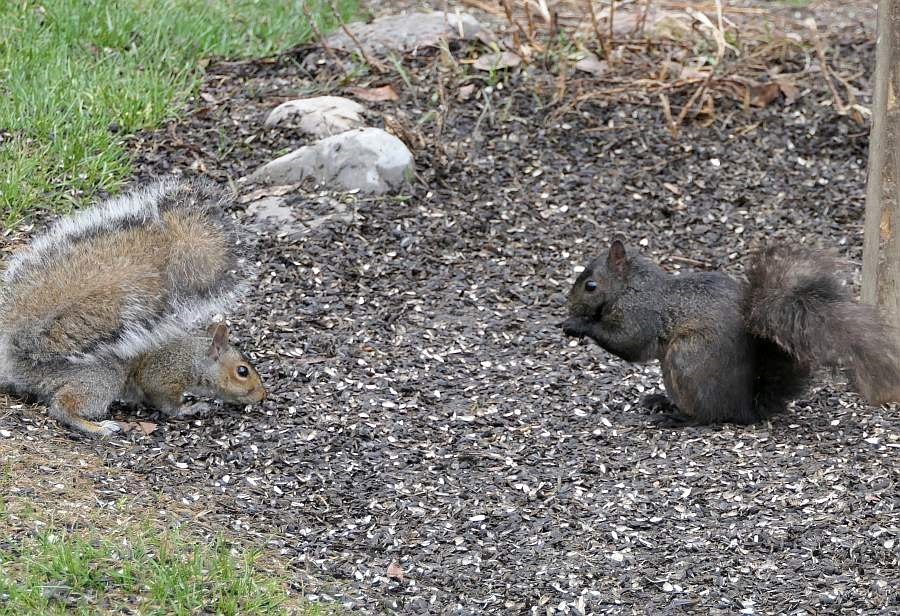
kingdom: Animalia
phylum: Chordata
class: Mammalia
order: Rodentia
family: Sciuridae
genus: Sciurus
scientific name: Sciurus carolinensis
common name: Eastern gray squirrel
